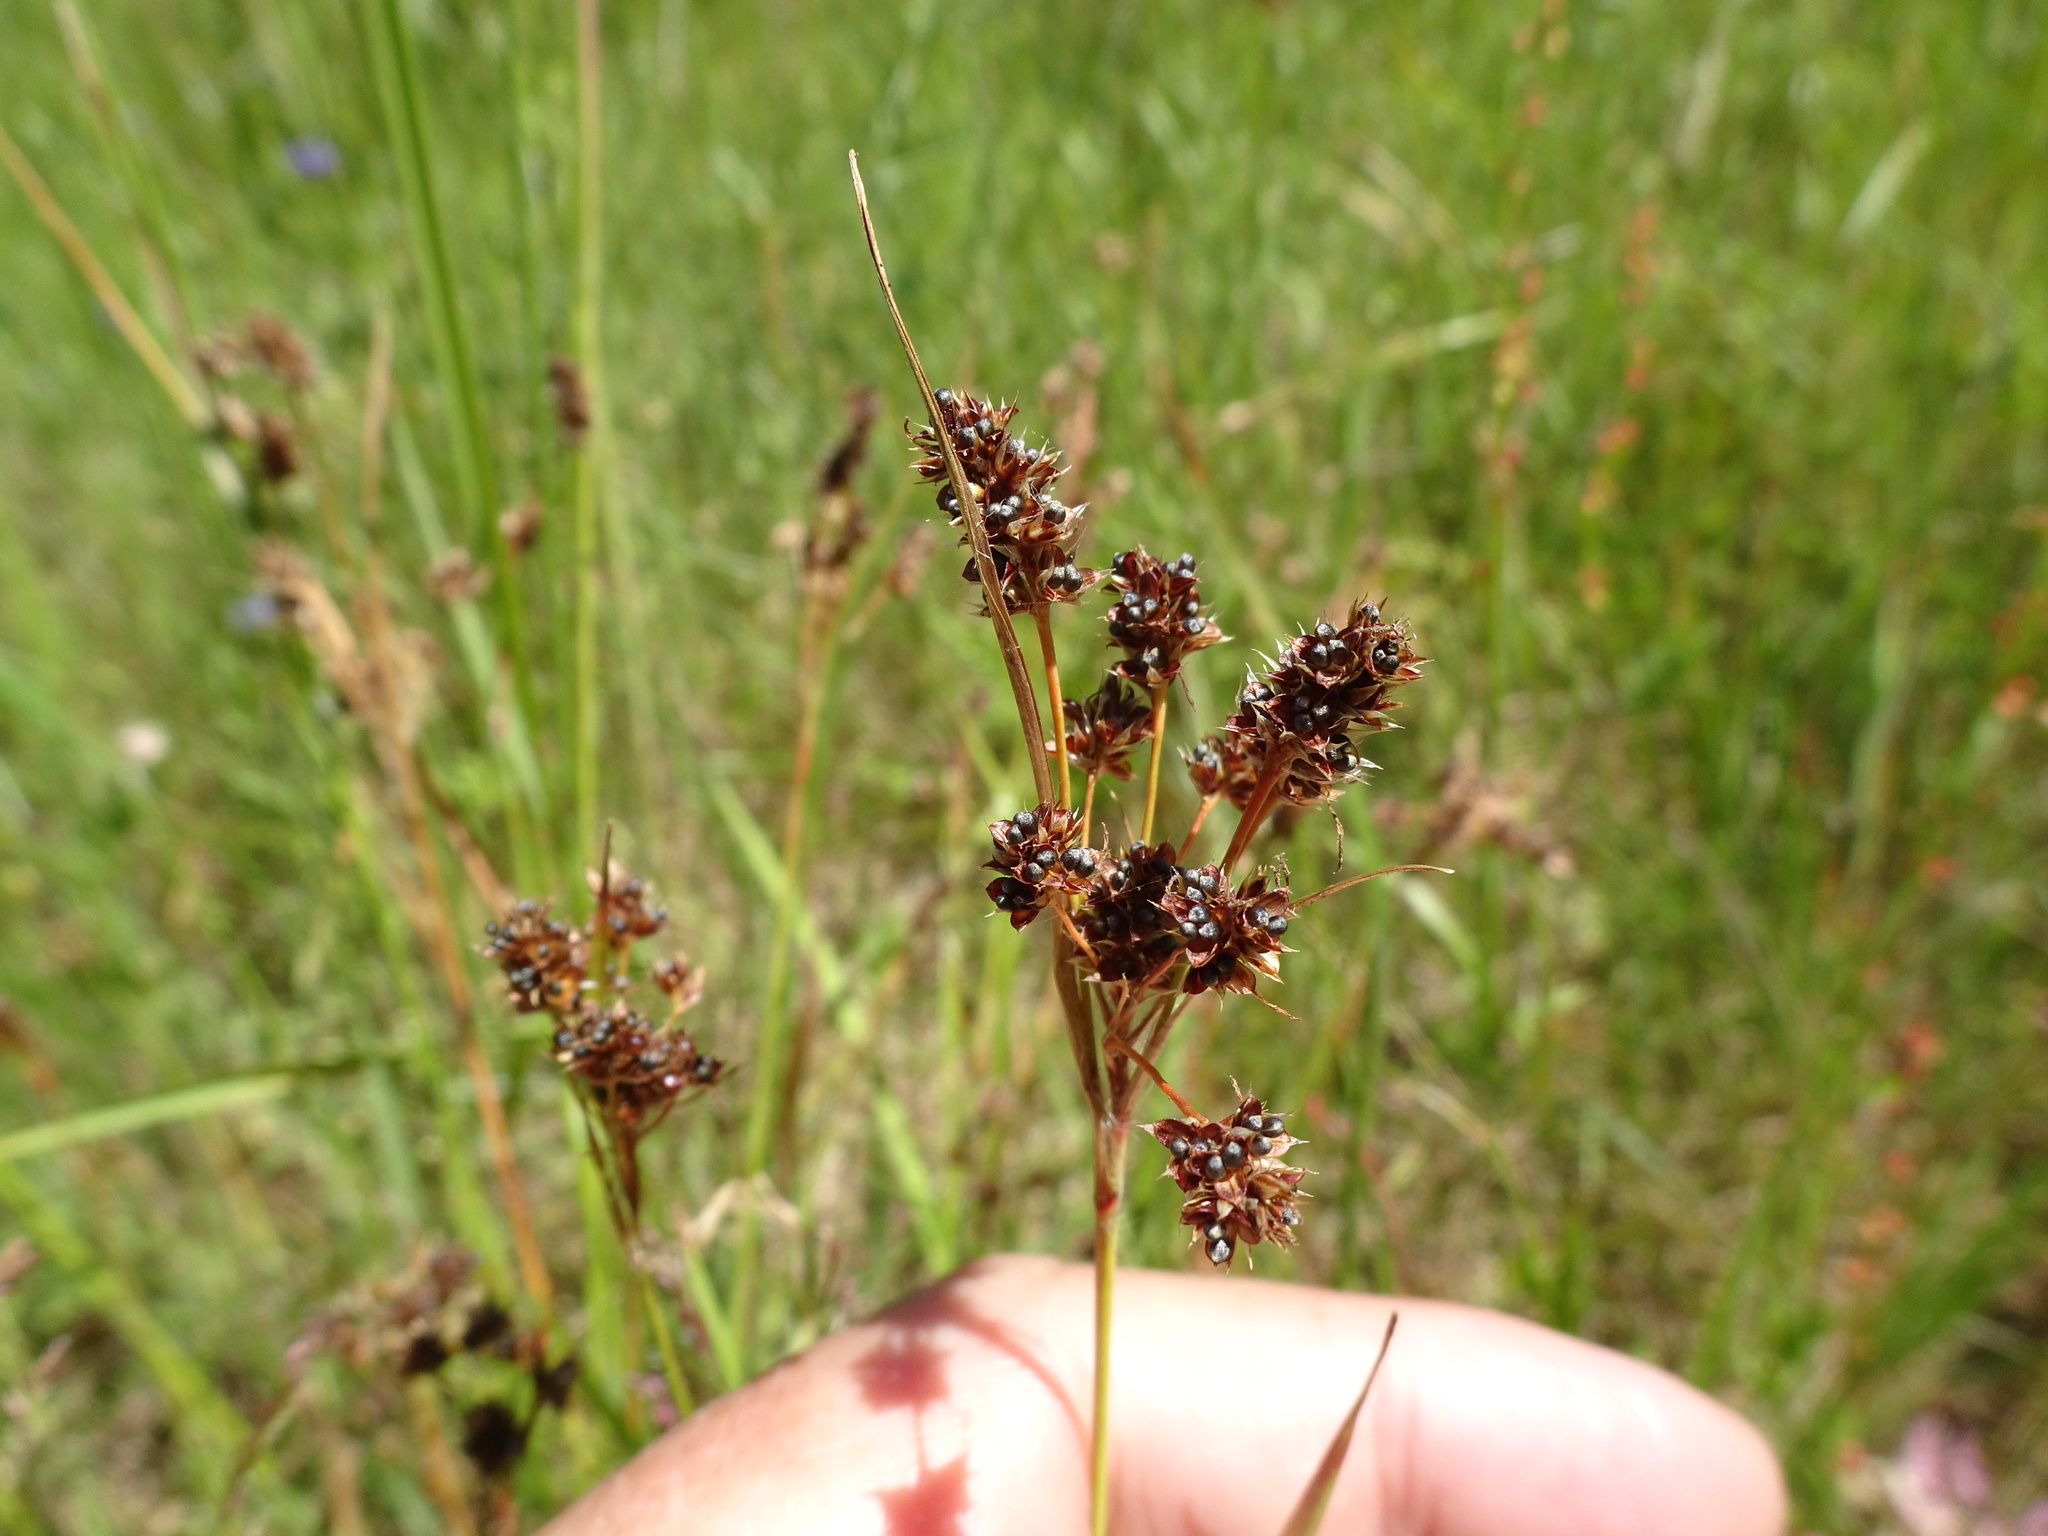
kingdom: Plantae
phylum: Tracheophyta
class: Liliopsida
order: Poales
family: Juncaceae
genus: Luzula
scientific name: Luzula multiflora
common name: Heath wood-rush
